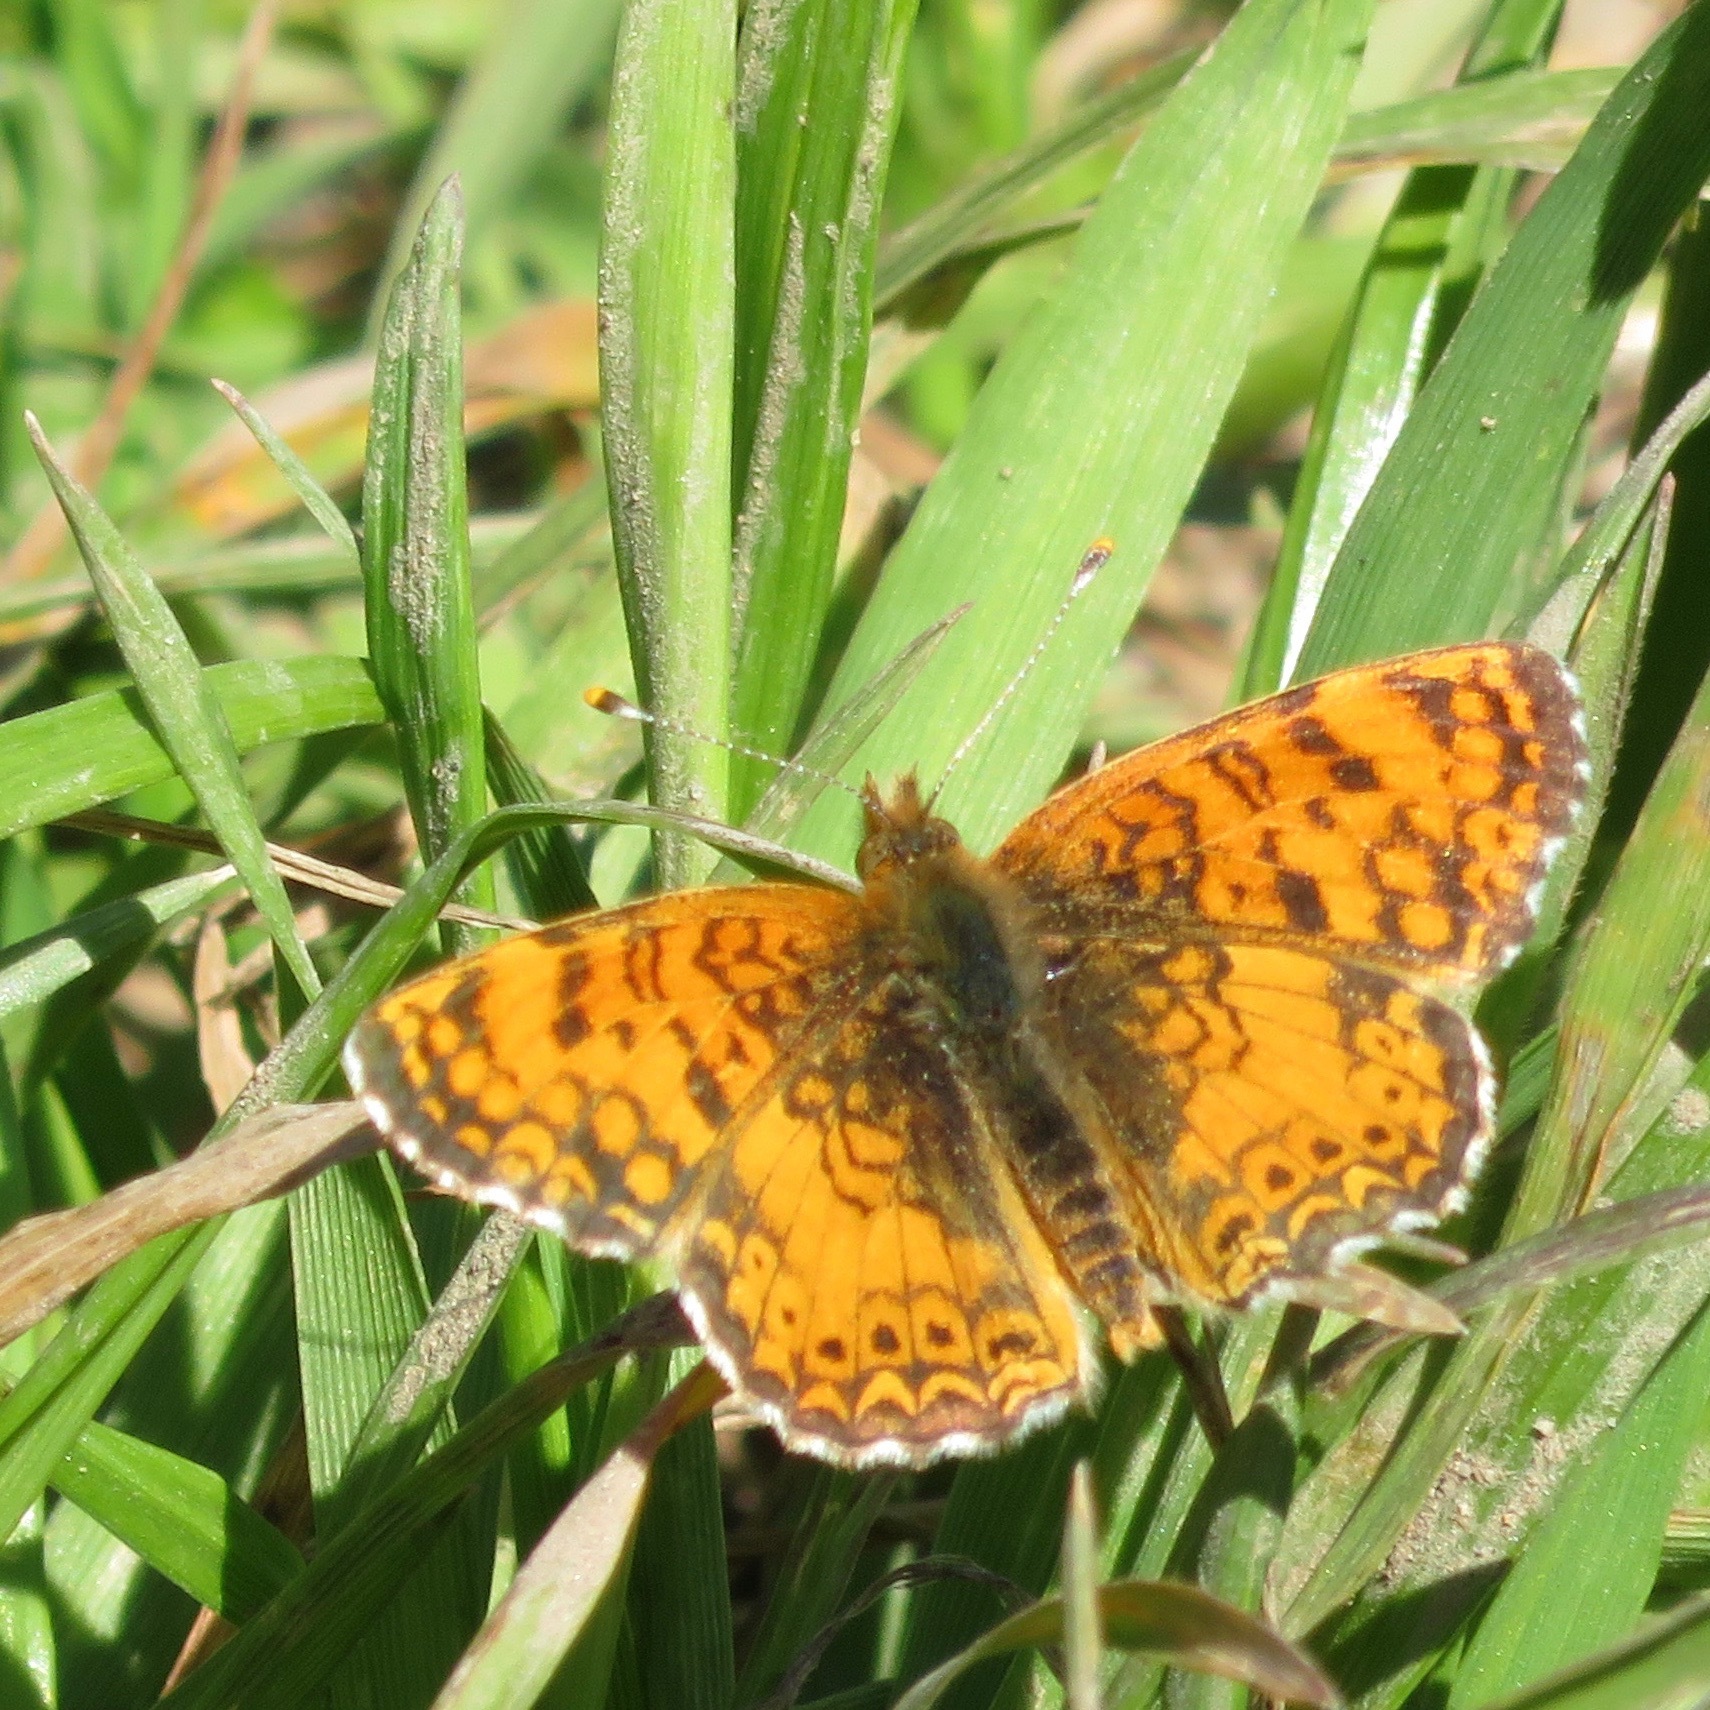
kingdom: Animalia
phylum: Arthropoda
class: Insecta
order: Lepidoptera
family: Nymphalidae
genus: Eresia
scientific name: Eresia aveyrona
